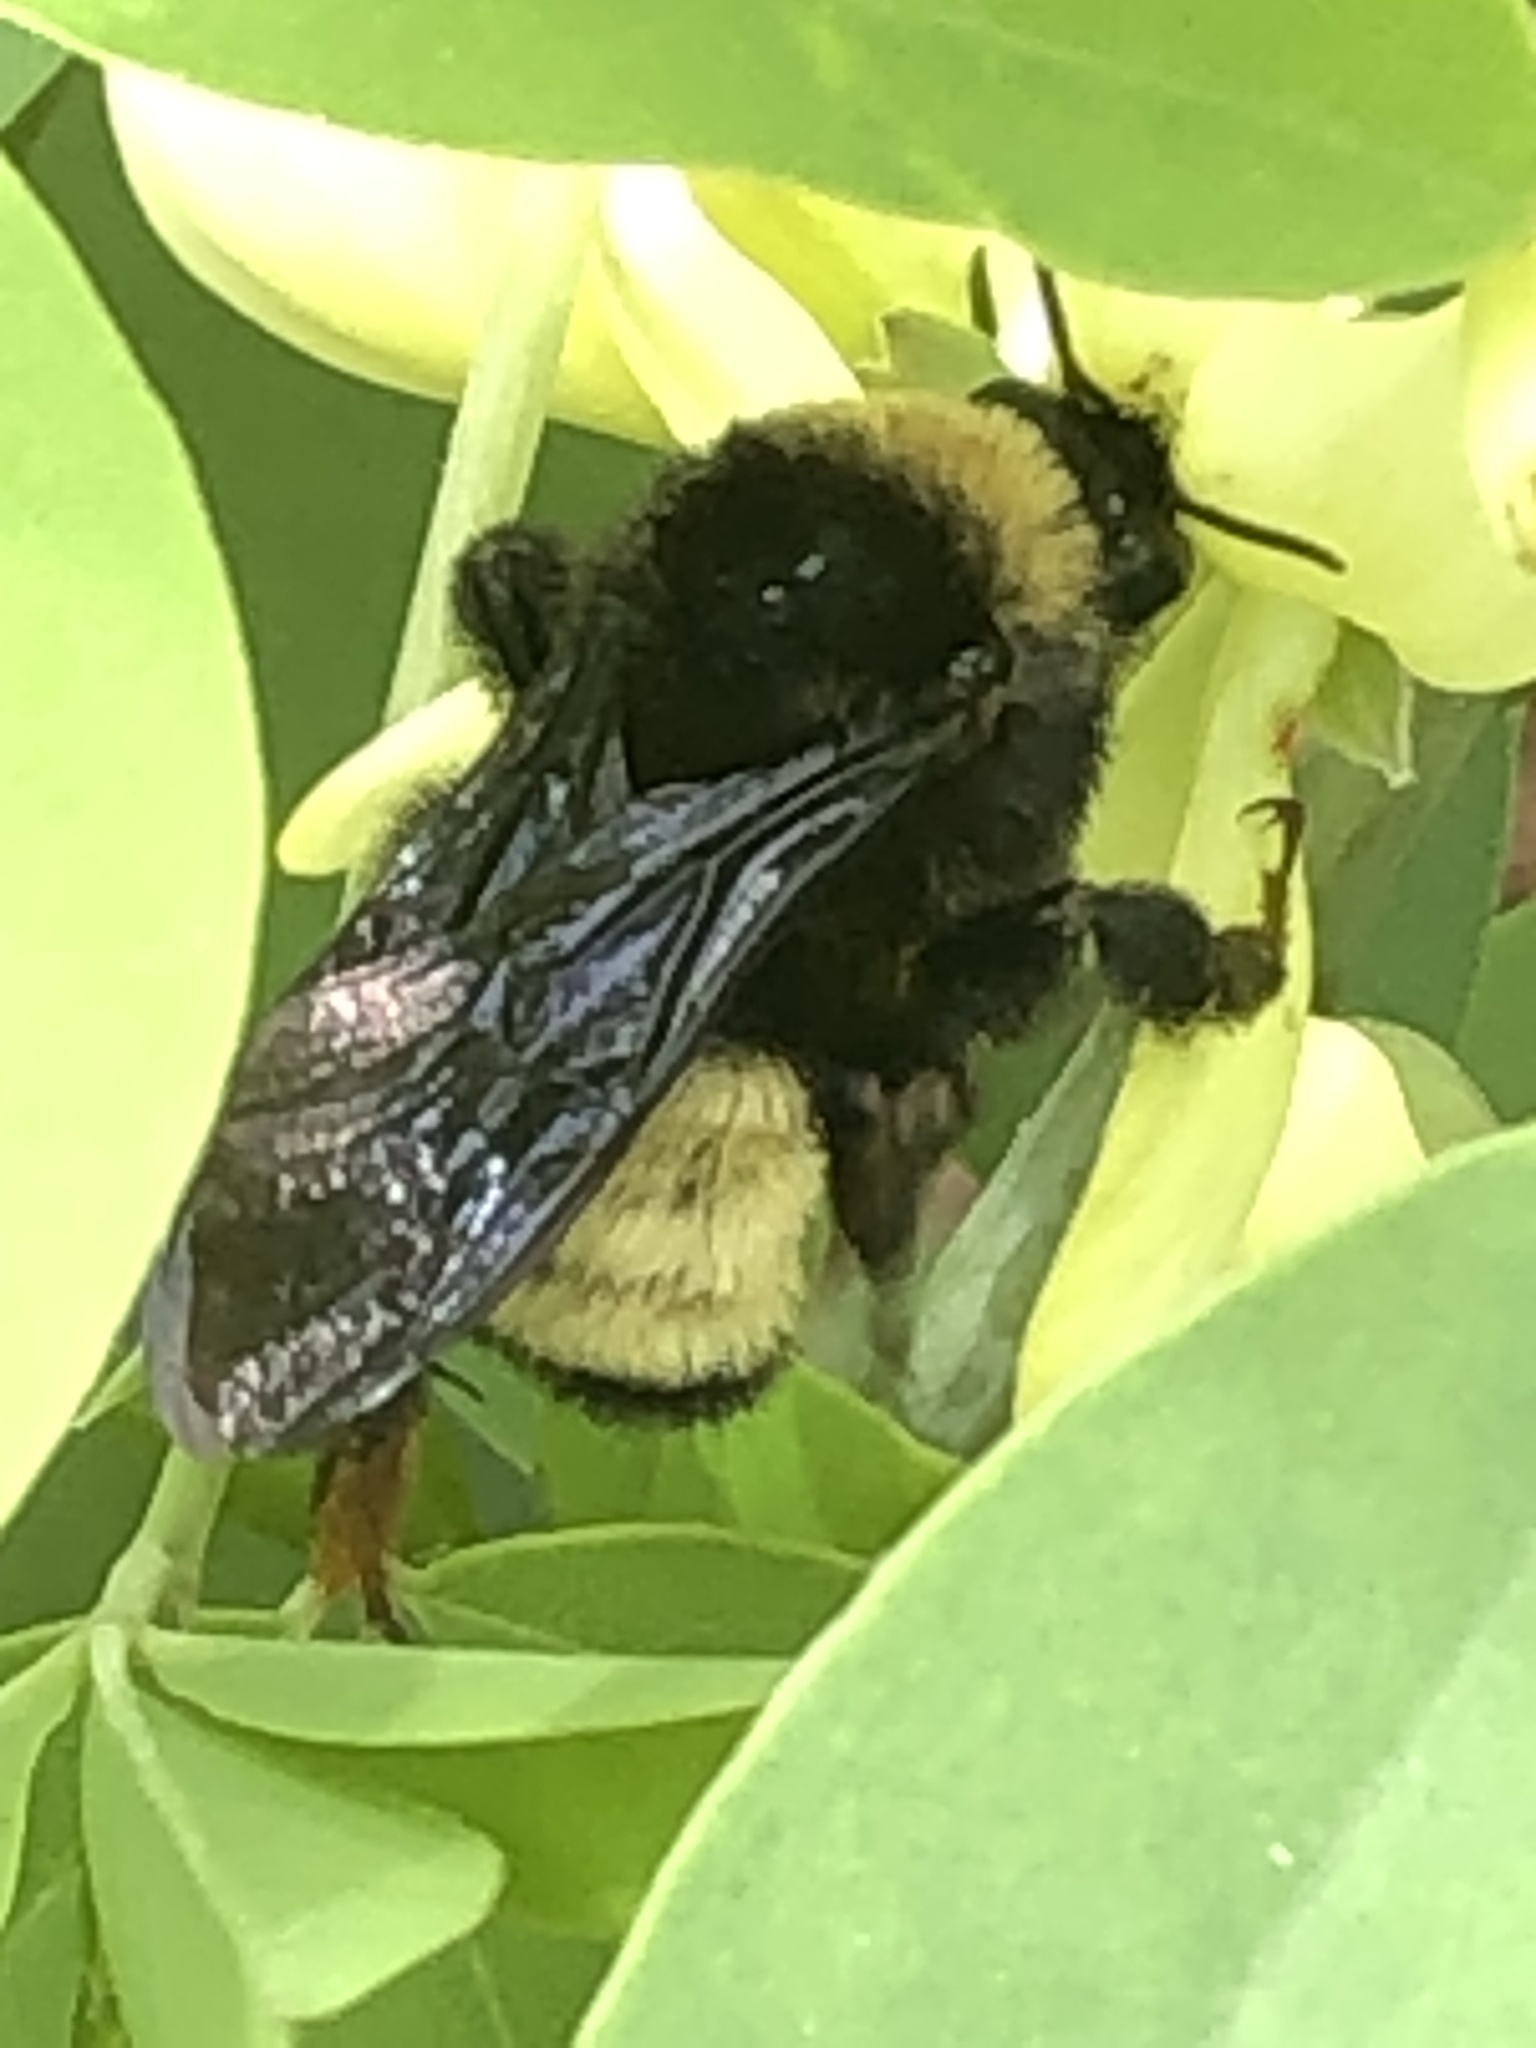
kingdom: Animalia
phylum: Arthropoda
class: Insecta
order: Hymenoptera
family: Apidae
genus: Bombus
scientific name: Bombus pensylvanicus
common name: Bumble bee
